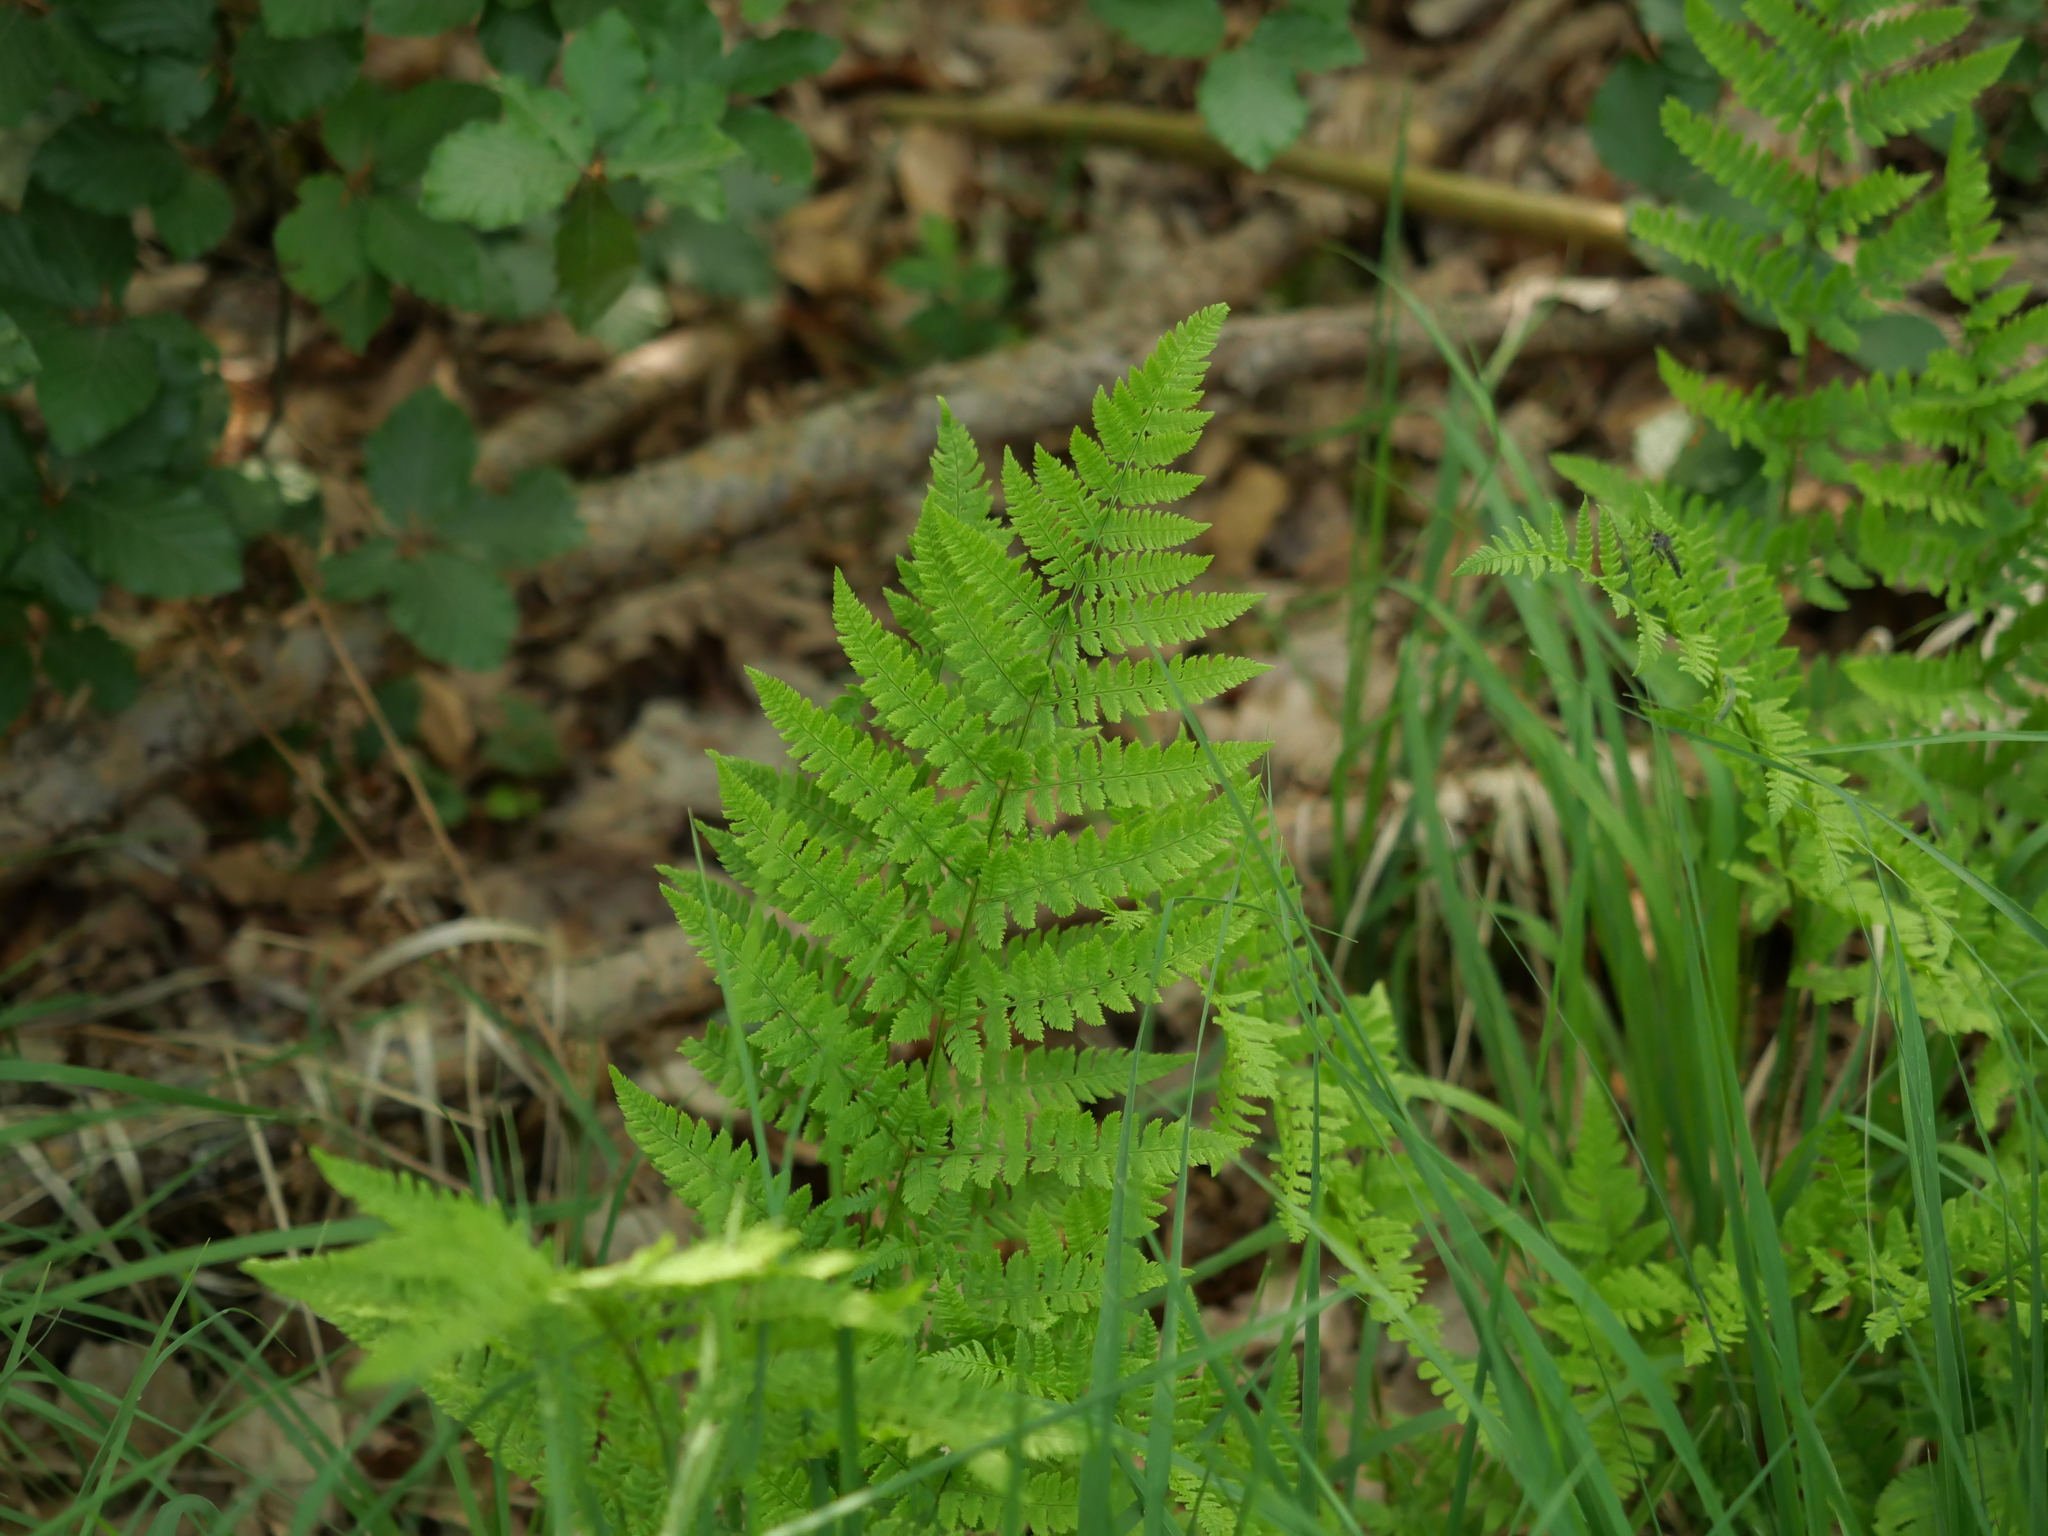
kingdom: Plantae
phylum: Tracheophyta
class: Polypodiopsida
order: Polypodiales
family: Dryopteridaceae
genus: Dryopteris
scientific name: Dryopteris carthusiana
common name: Narrow buckler-fern
